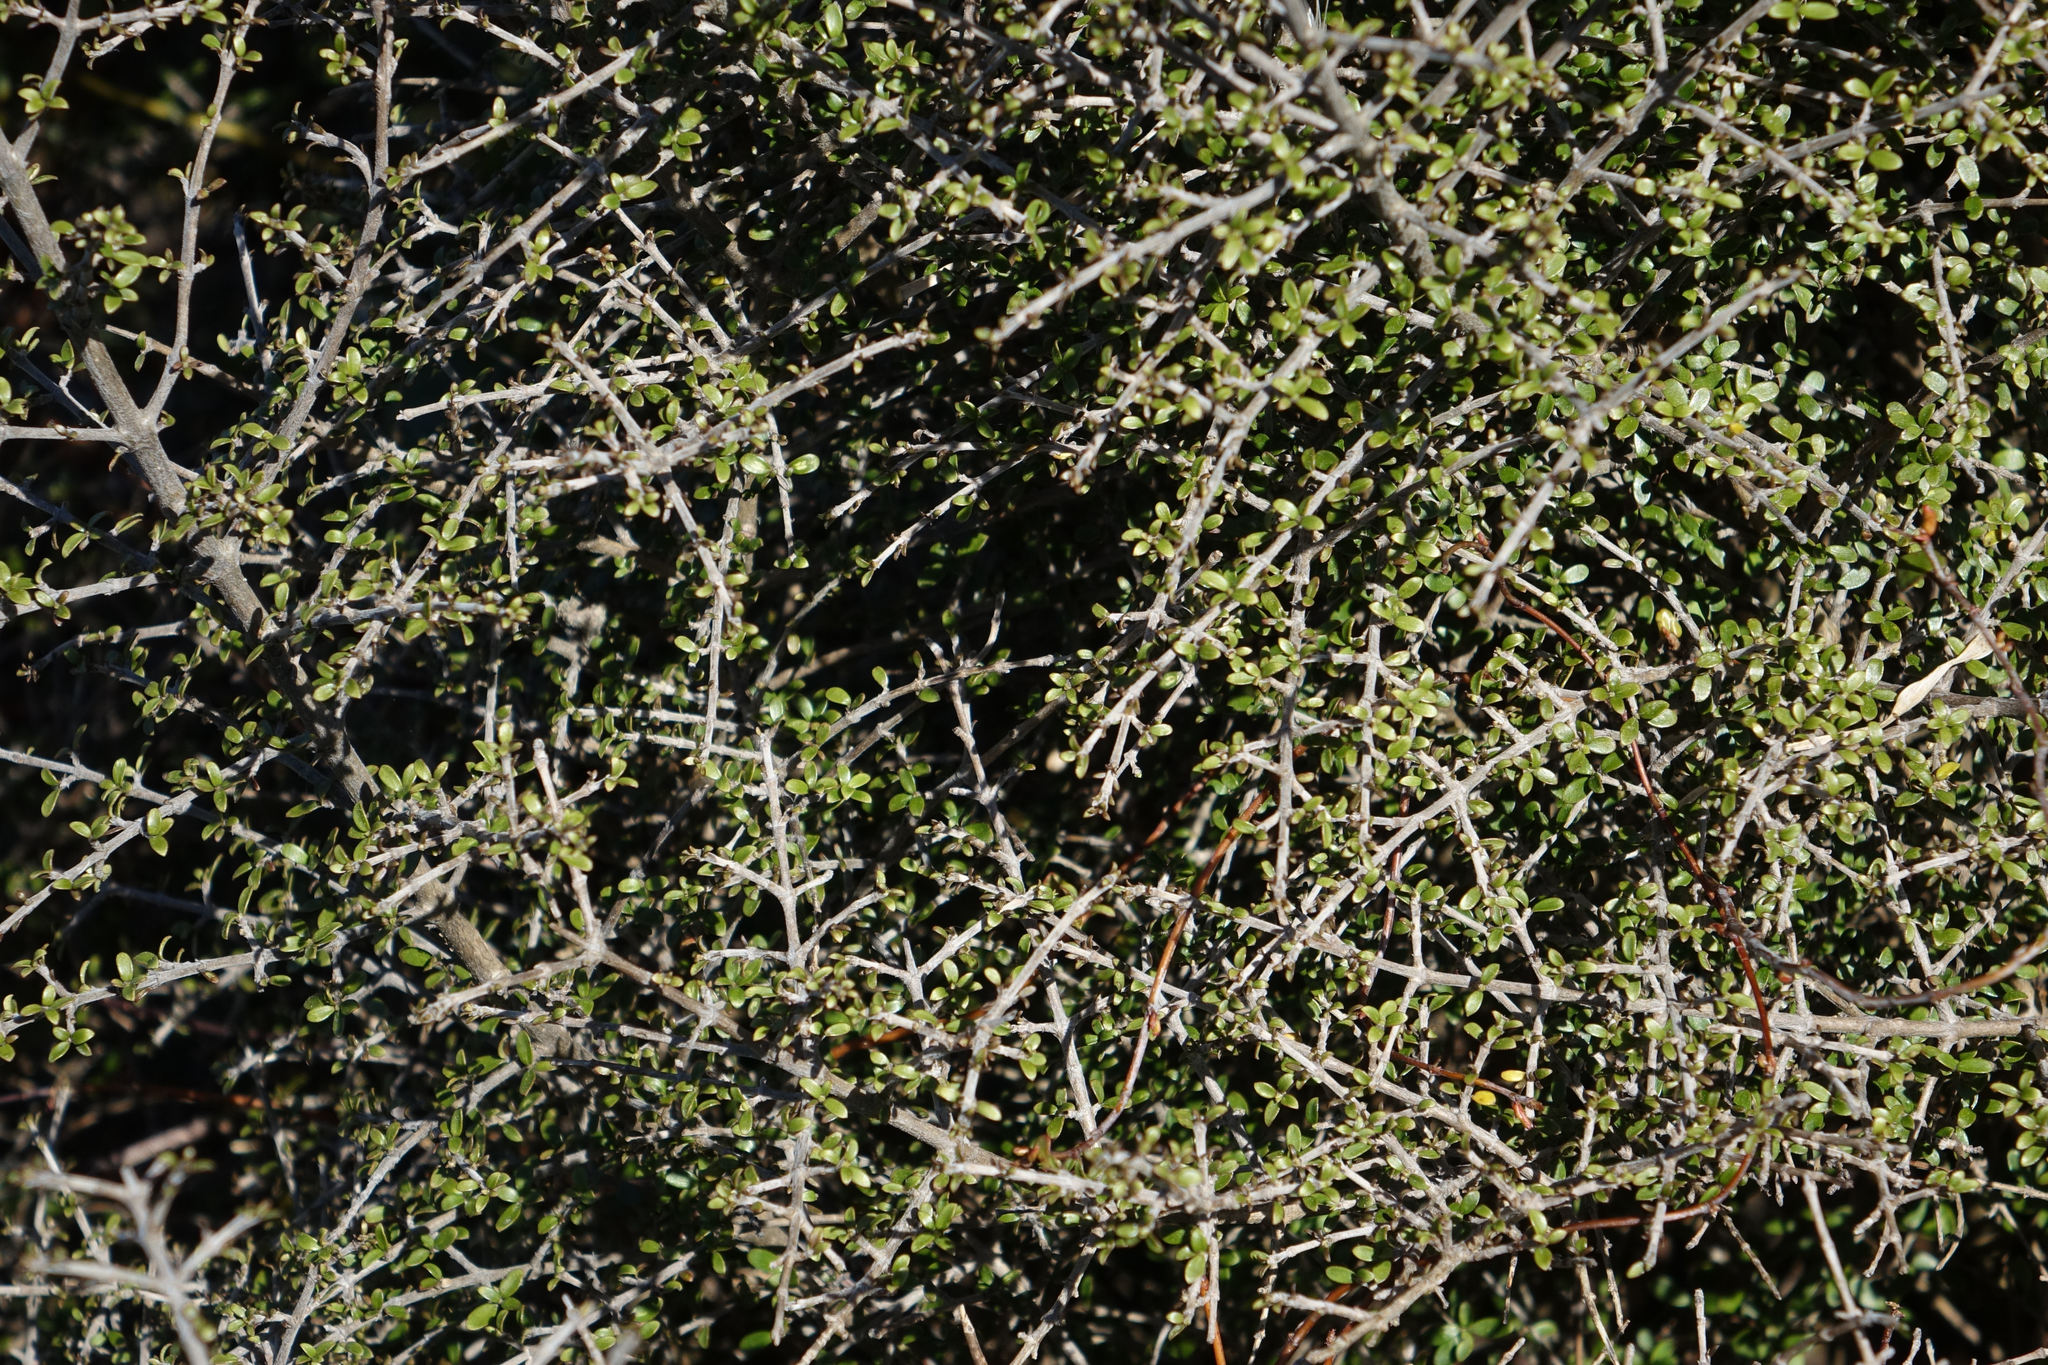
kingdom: Plantae
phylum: Tracheophyta
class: Magnoliopsida
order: Gentianales
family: Rubiaceae
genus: Coprosma
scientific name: Coprosma dumosa
